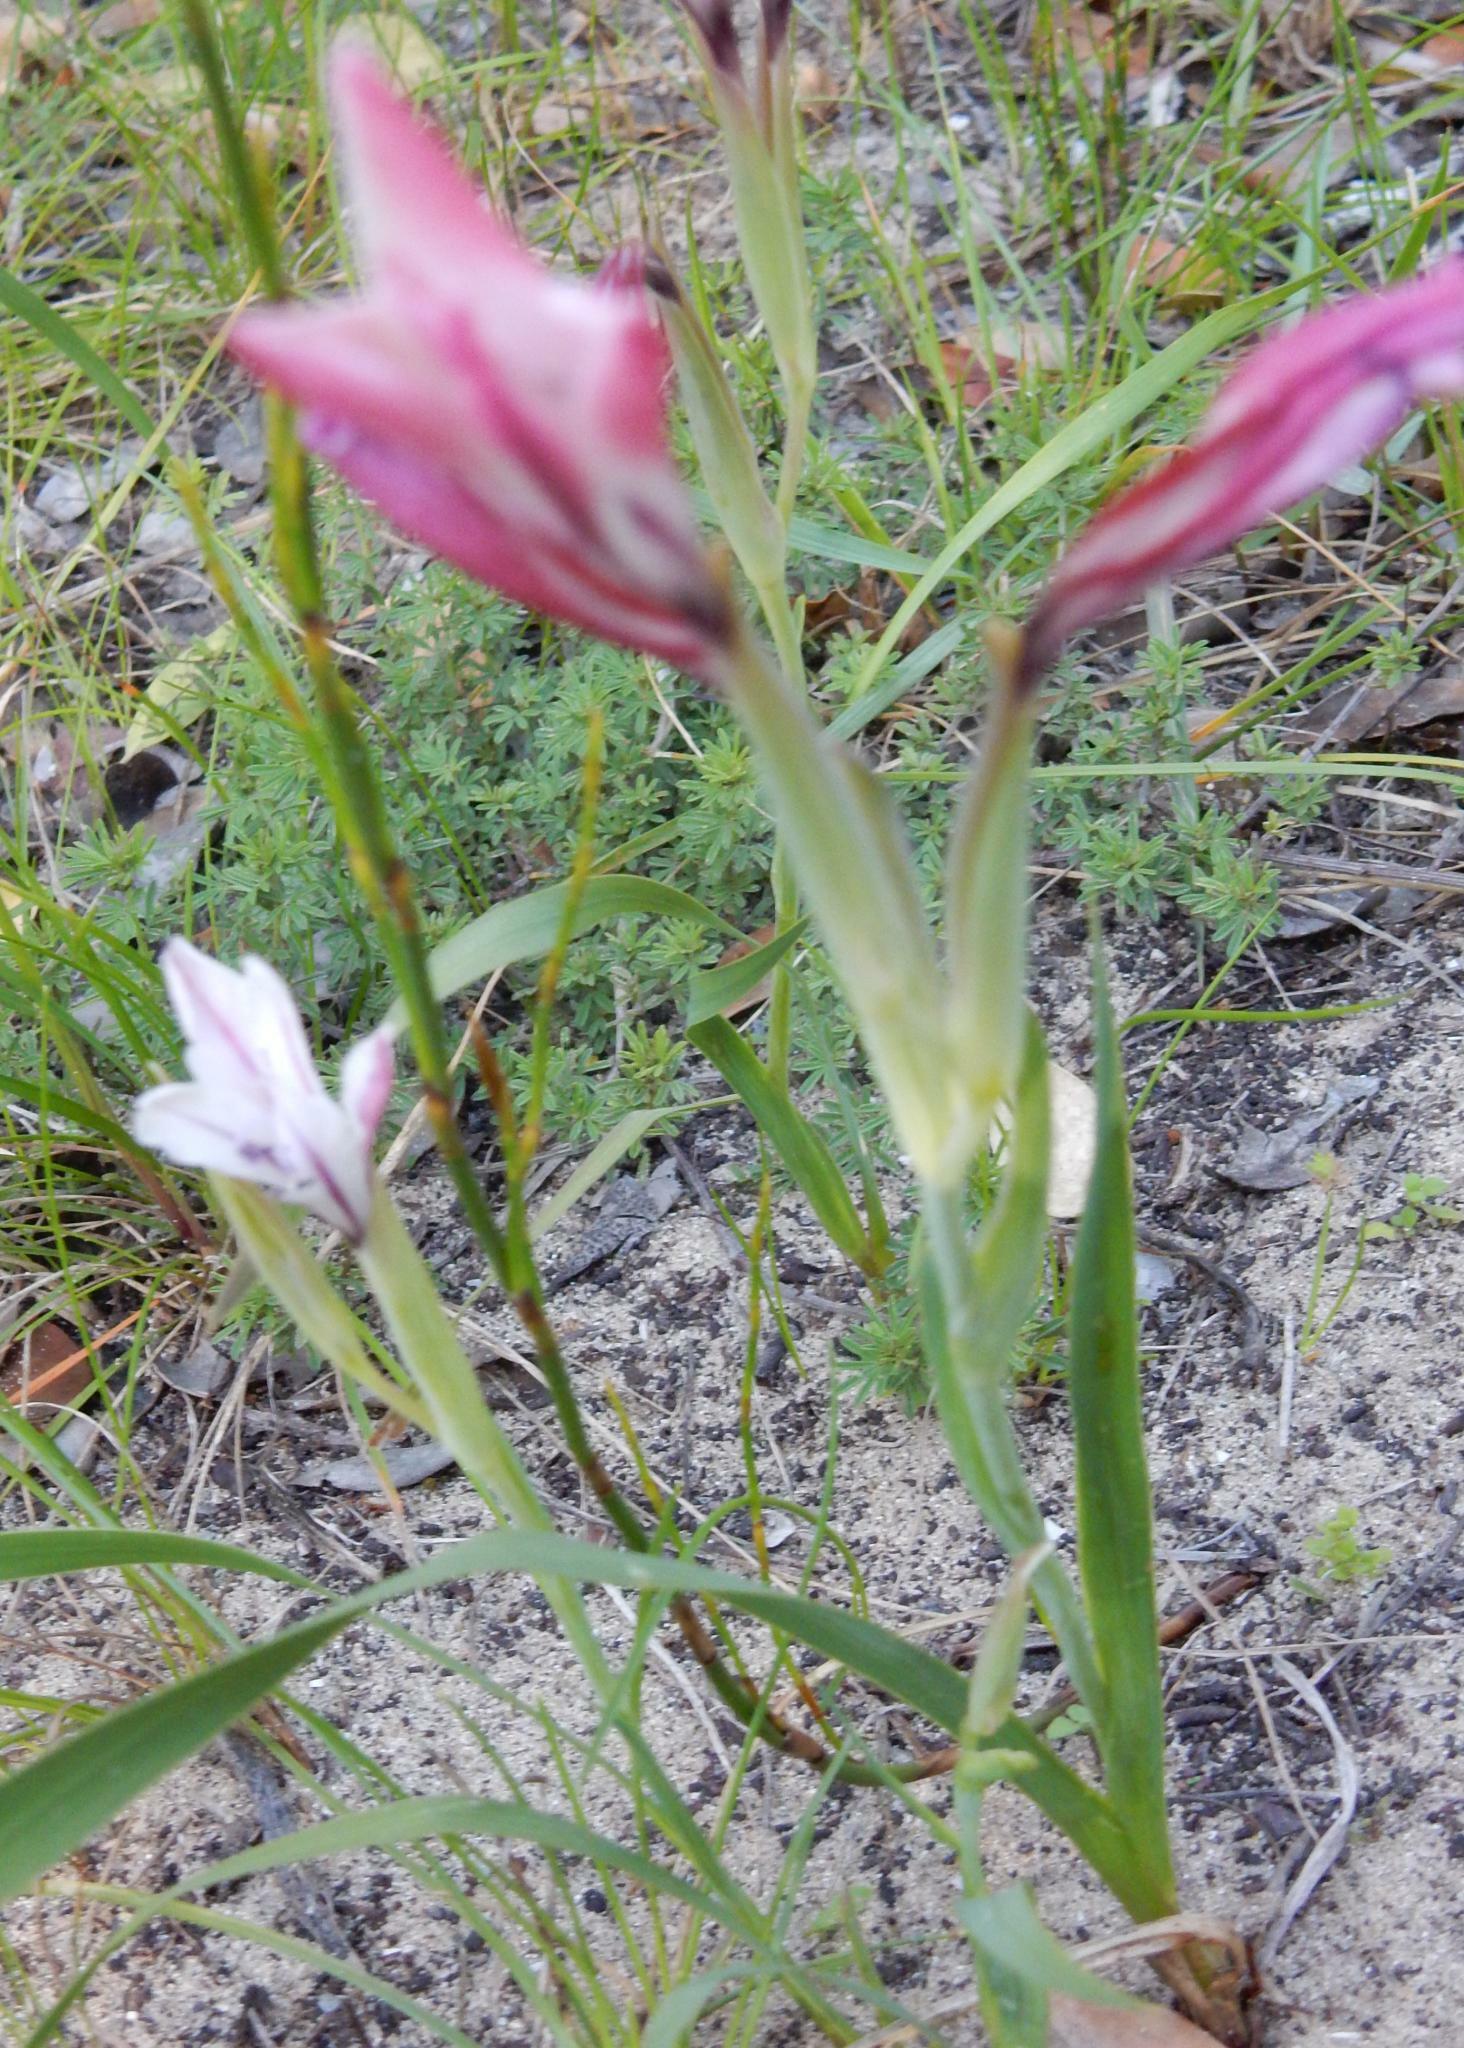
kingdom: Plantae
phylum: Tracheophyta
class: Liliopsida
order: Asparagales
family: Iridaceae
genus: Gladiolus
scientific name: Gladiolus floribundus
